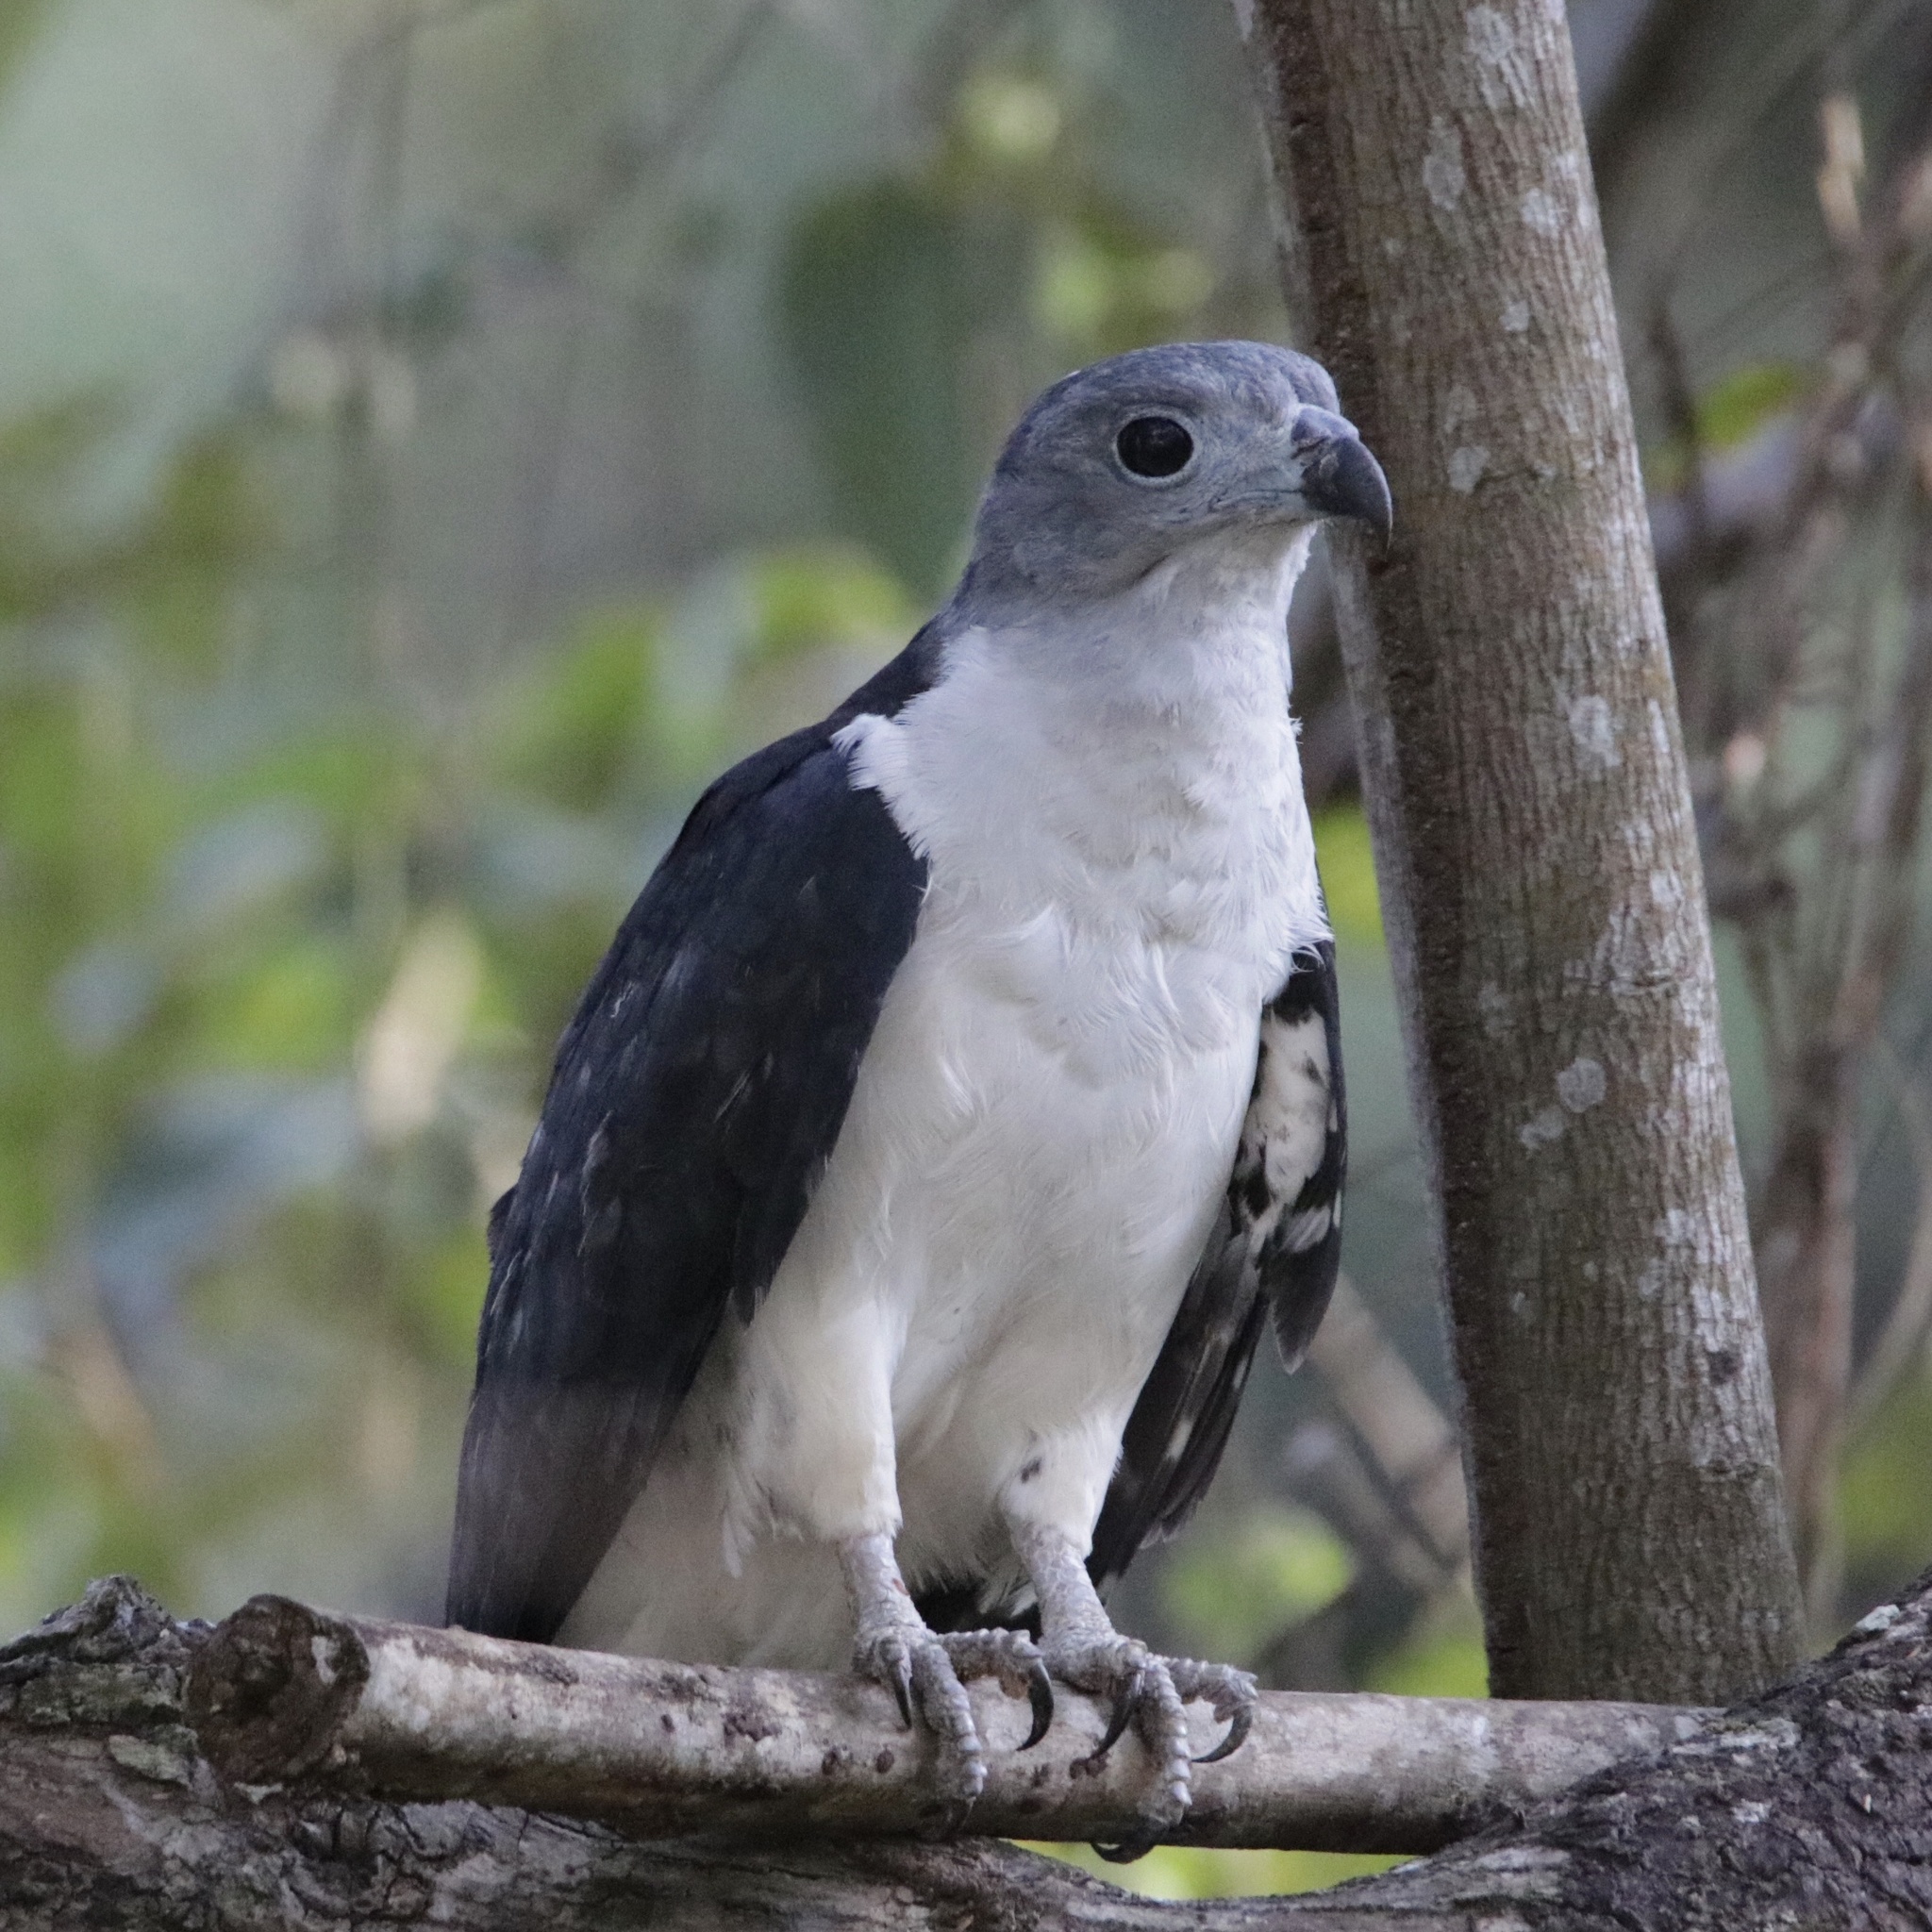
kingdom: Animalia
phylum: Chordata
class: Aves
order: Accipitriformes
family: Accipitridae
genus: Leptodon
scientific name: Leptodon cayanensis
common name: Gray-headed kite
